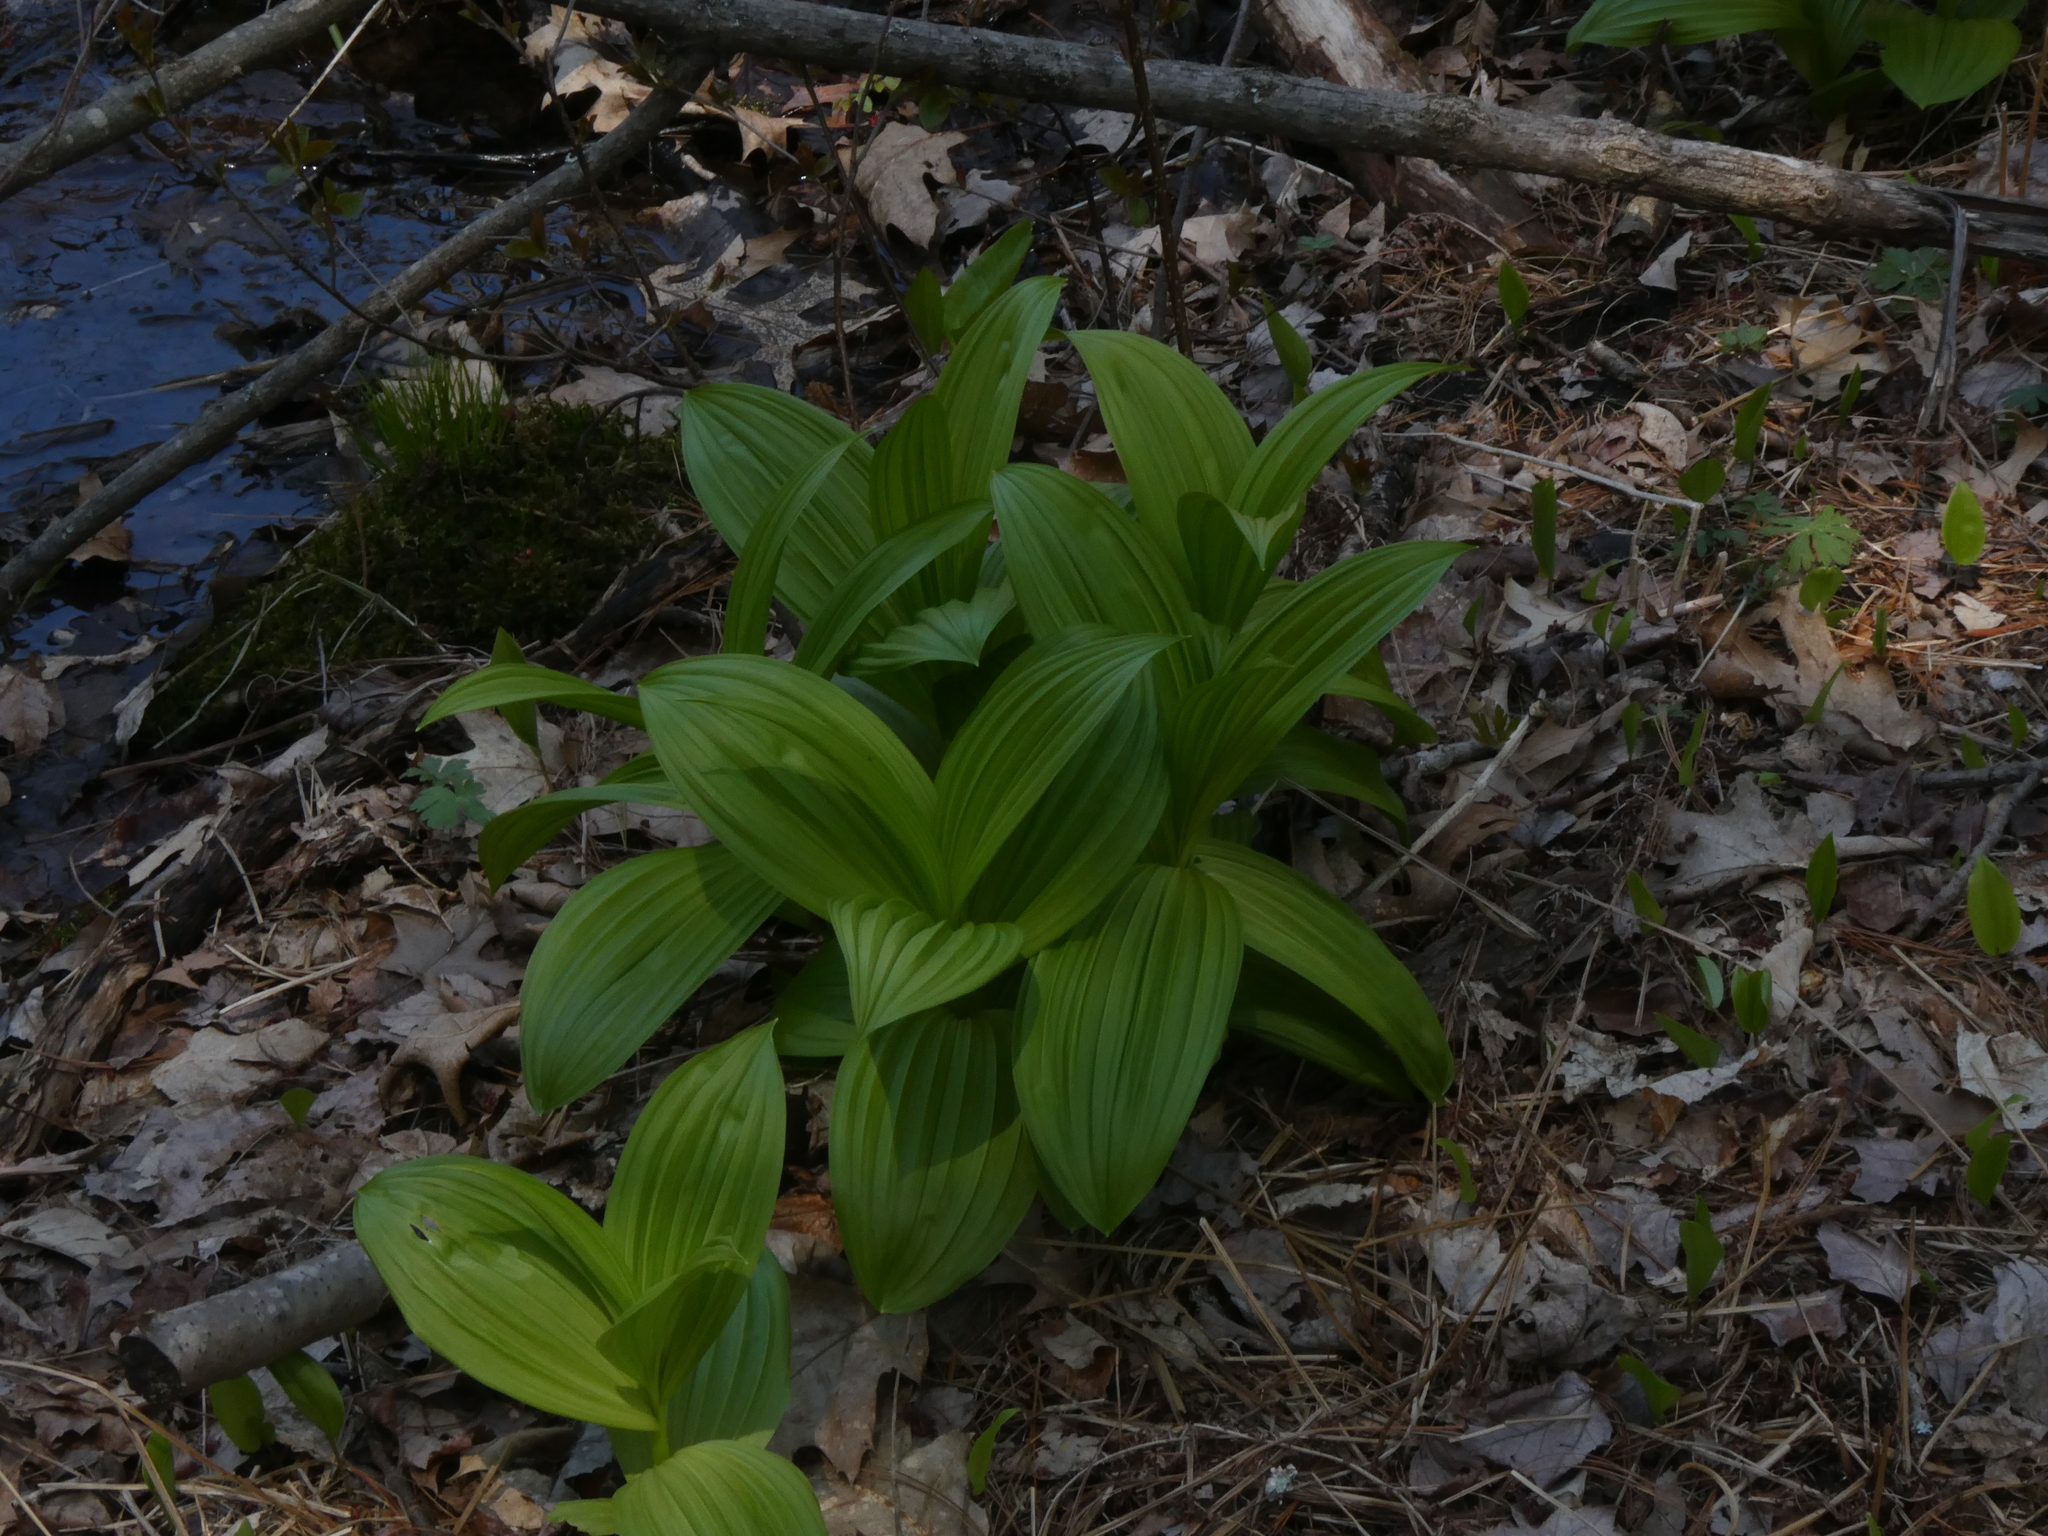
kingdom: Plantae
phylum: Tracheophyta
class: Liliopsida
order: Liliales
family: Melanthiaceae
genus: Veratrum
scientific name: Veratrum viride
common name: American false hellebore
